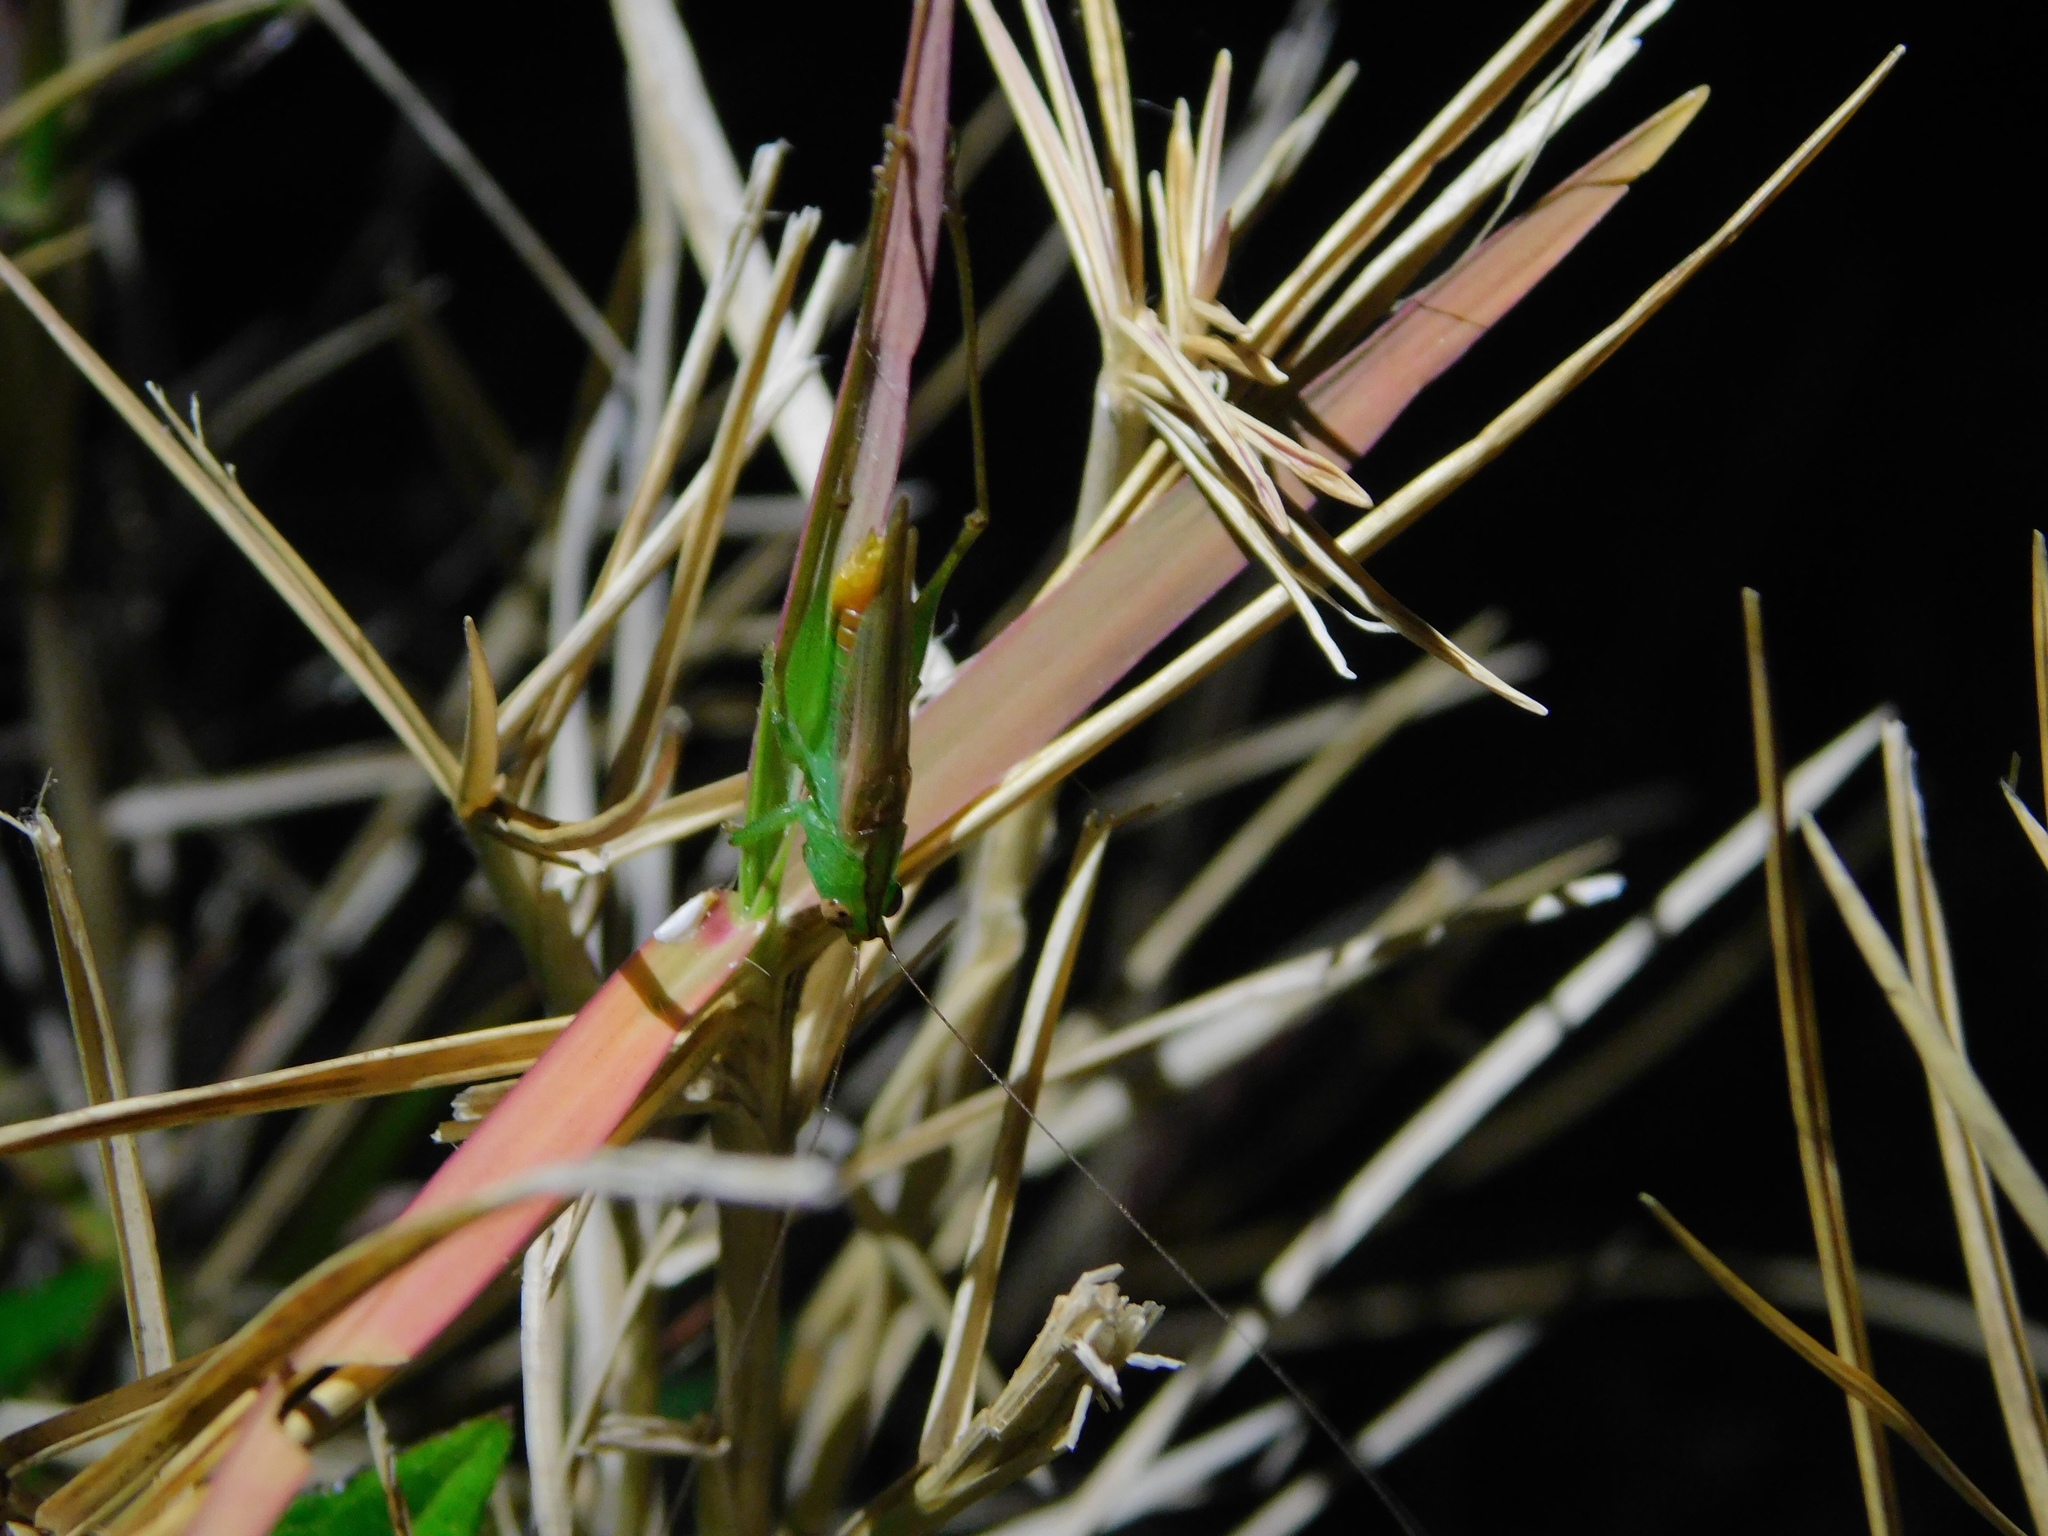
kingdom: Animalia
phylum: Arthropoda
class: Insecta
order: Orthoptera
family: Tettigoniidae
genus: Conocephalus
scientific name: Conocephalus cinereus
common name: Caribbean meadow katydid
